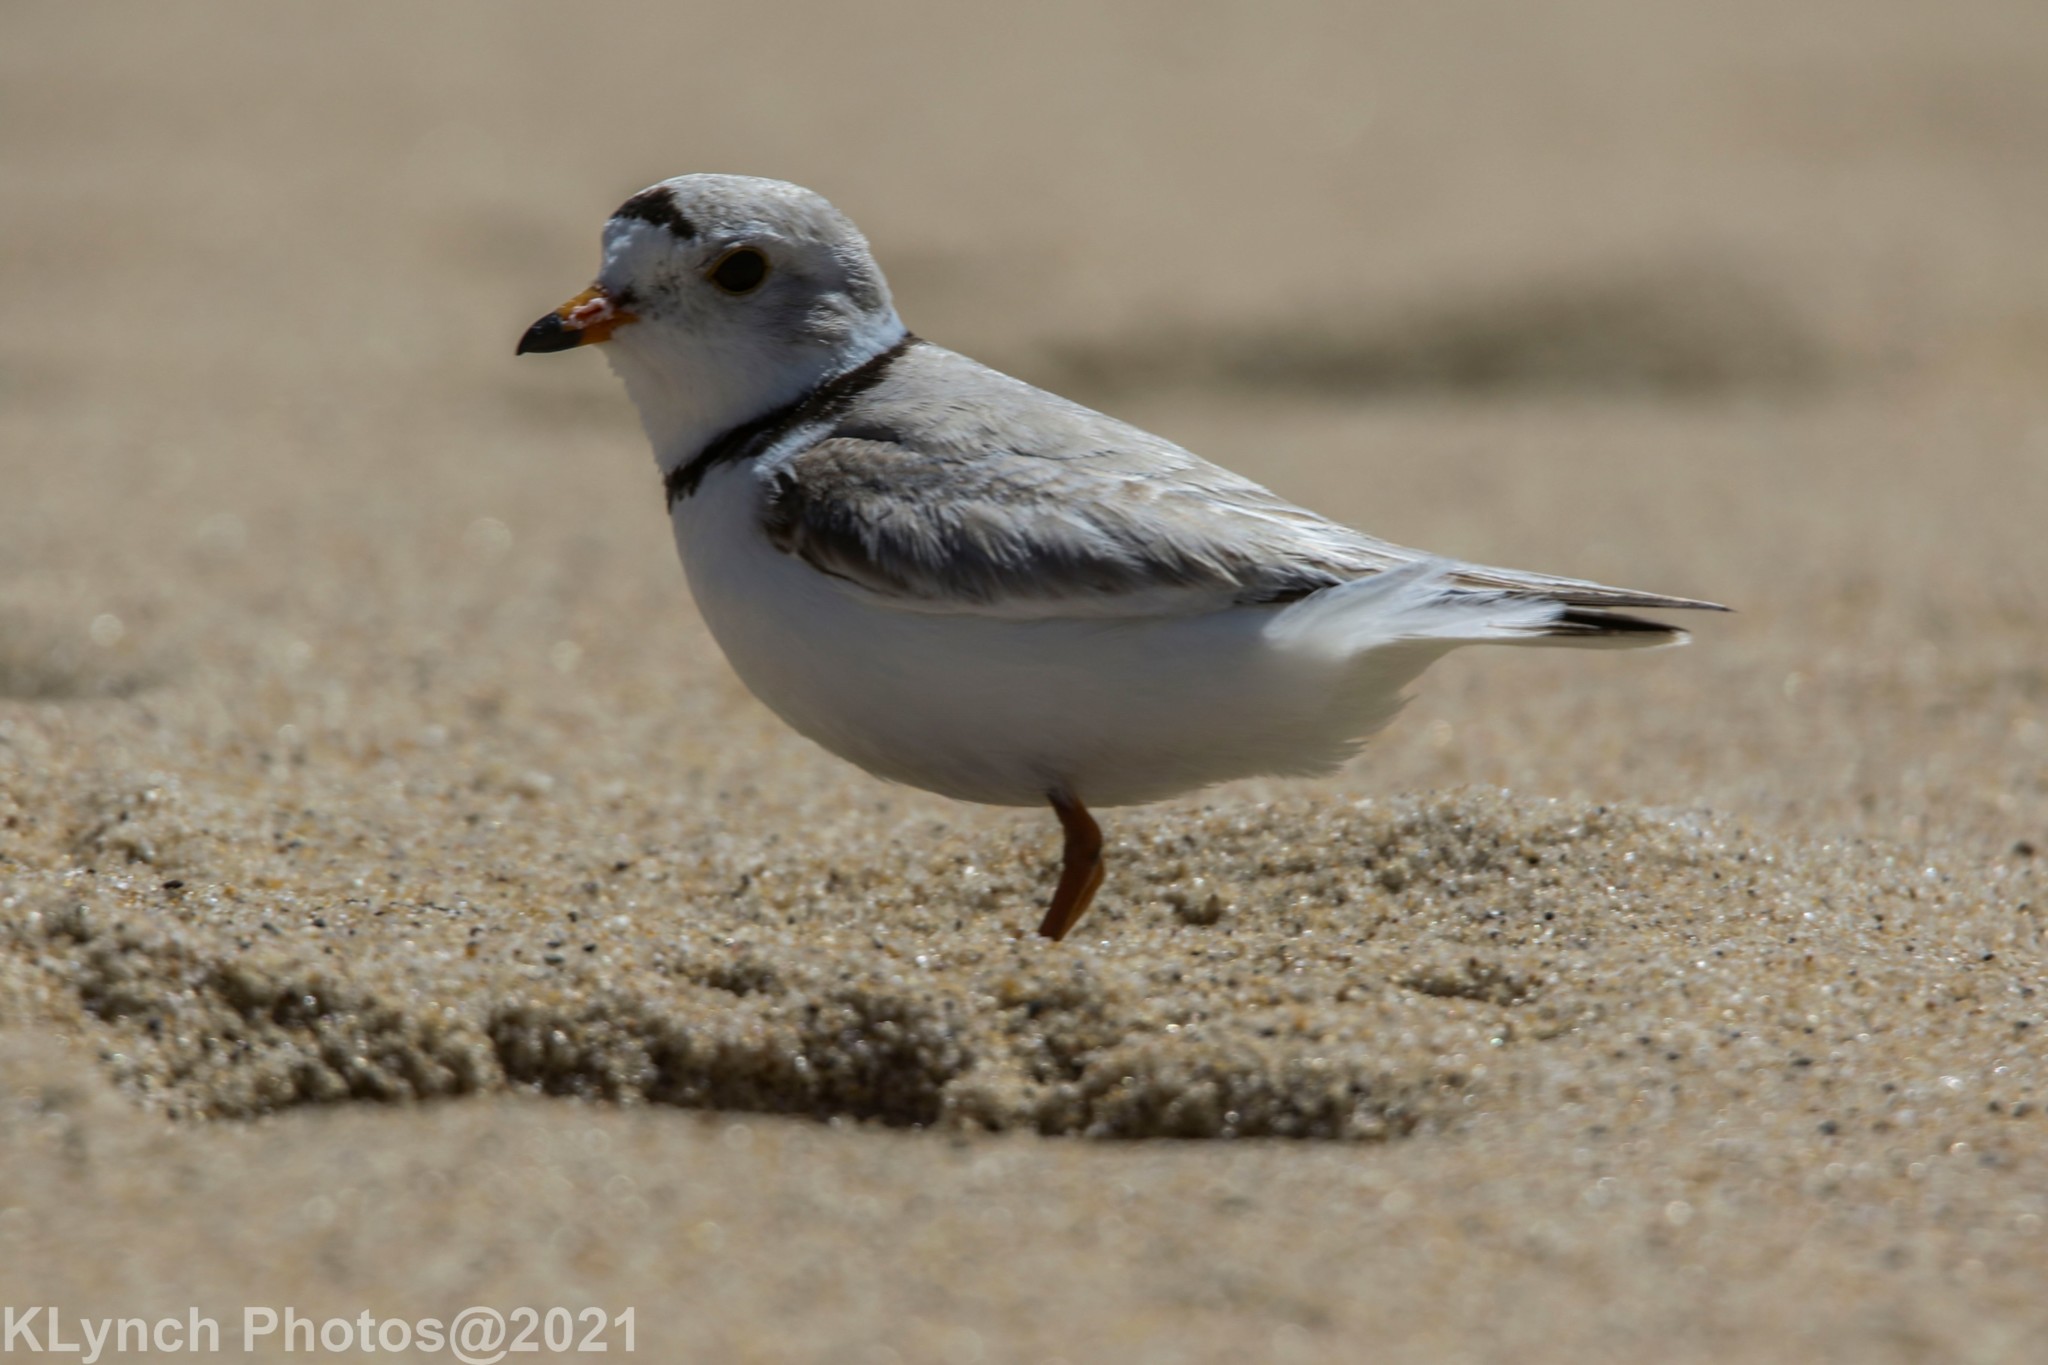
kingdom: Animalia
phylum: Chordata
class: Aves
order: Charadriiformes
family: Charadriidae
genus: Charadrius
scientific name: Charadrius melodus
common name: Piping plover
